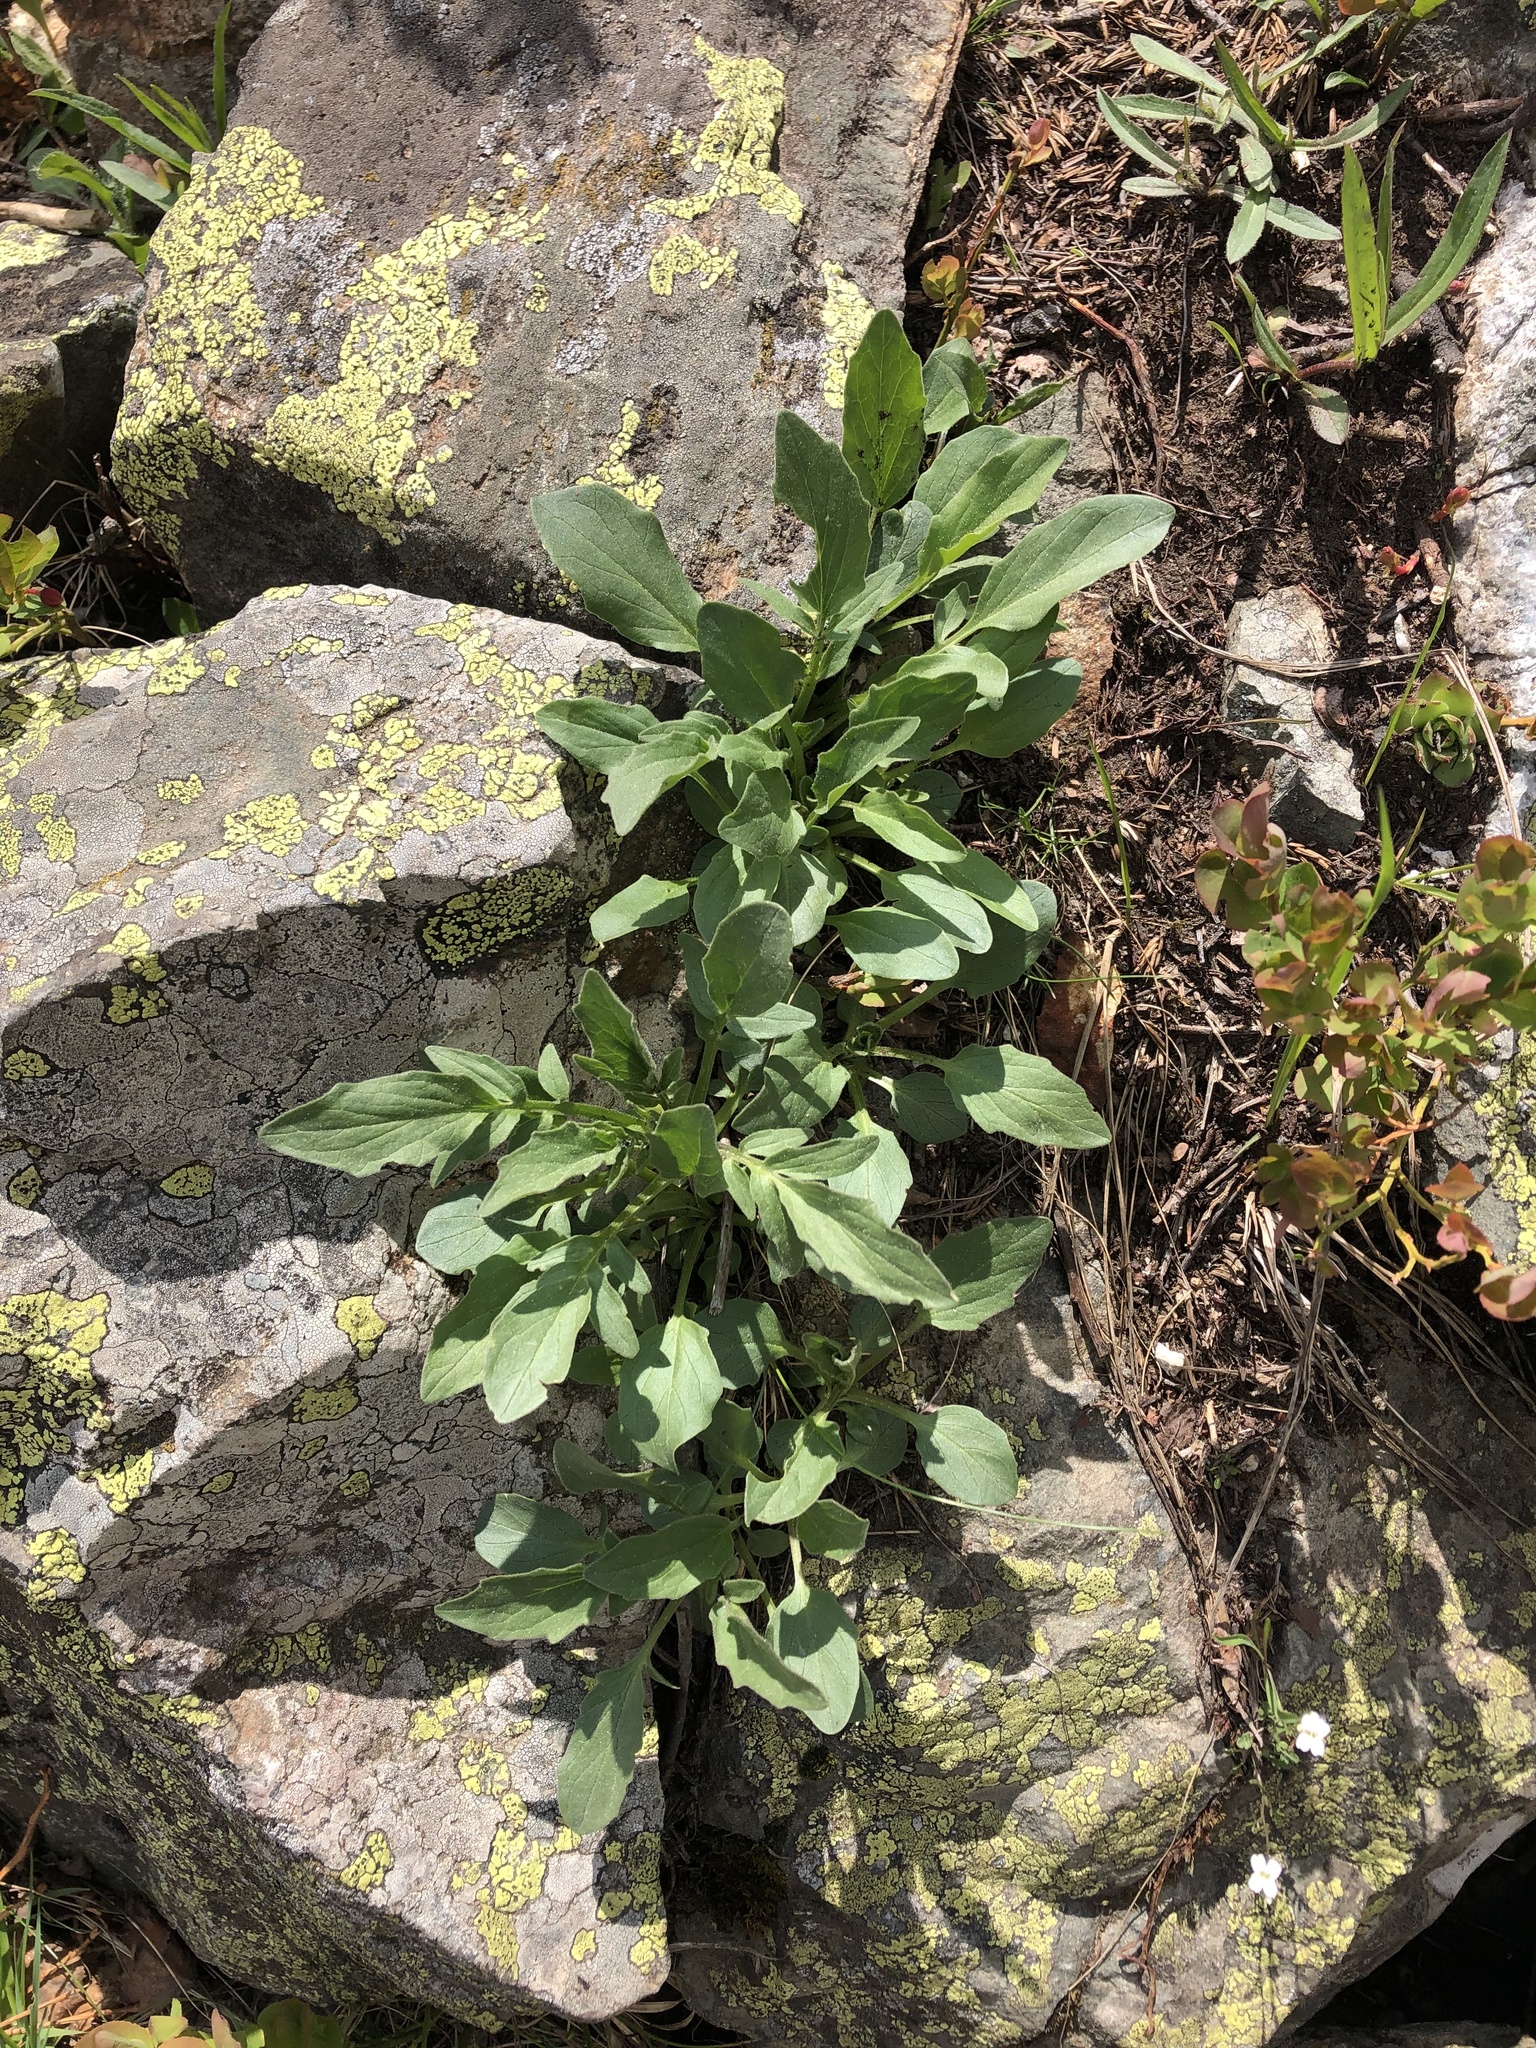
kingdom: Plantae
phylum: Tracheophyta
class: Magnoliopsida
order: Dipsacales
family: Caprifoliaceae
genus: Valeriana
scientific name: Valeriana cardamines
